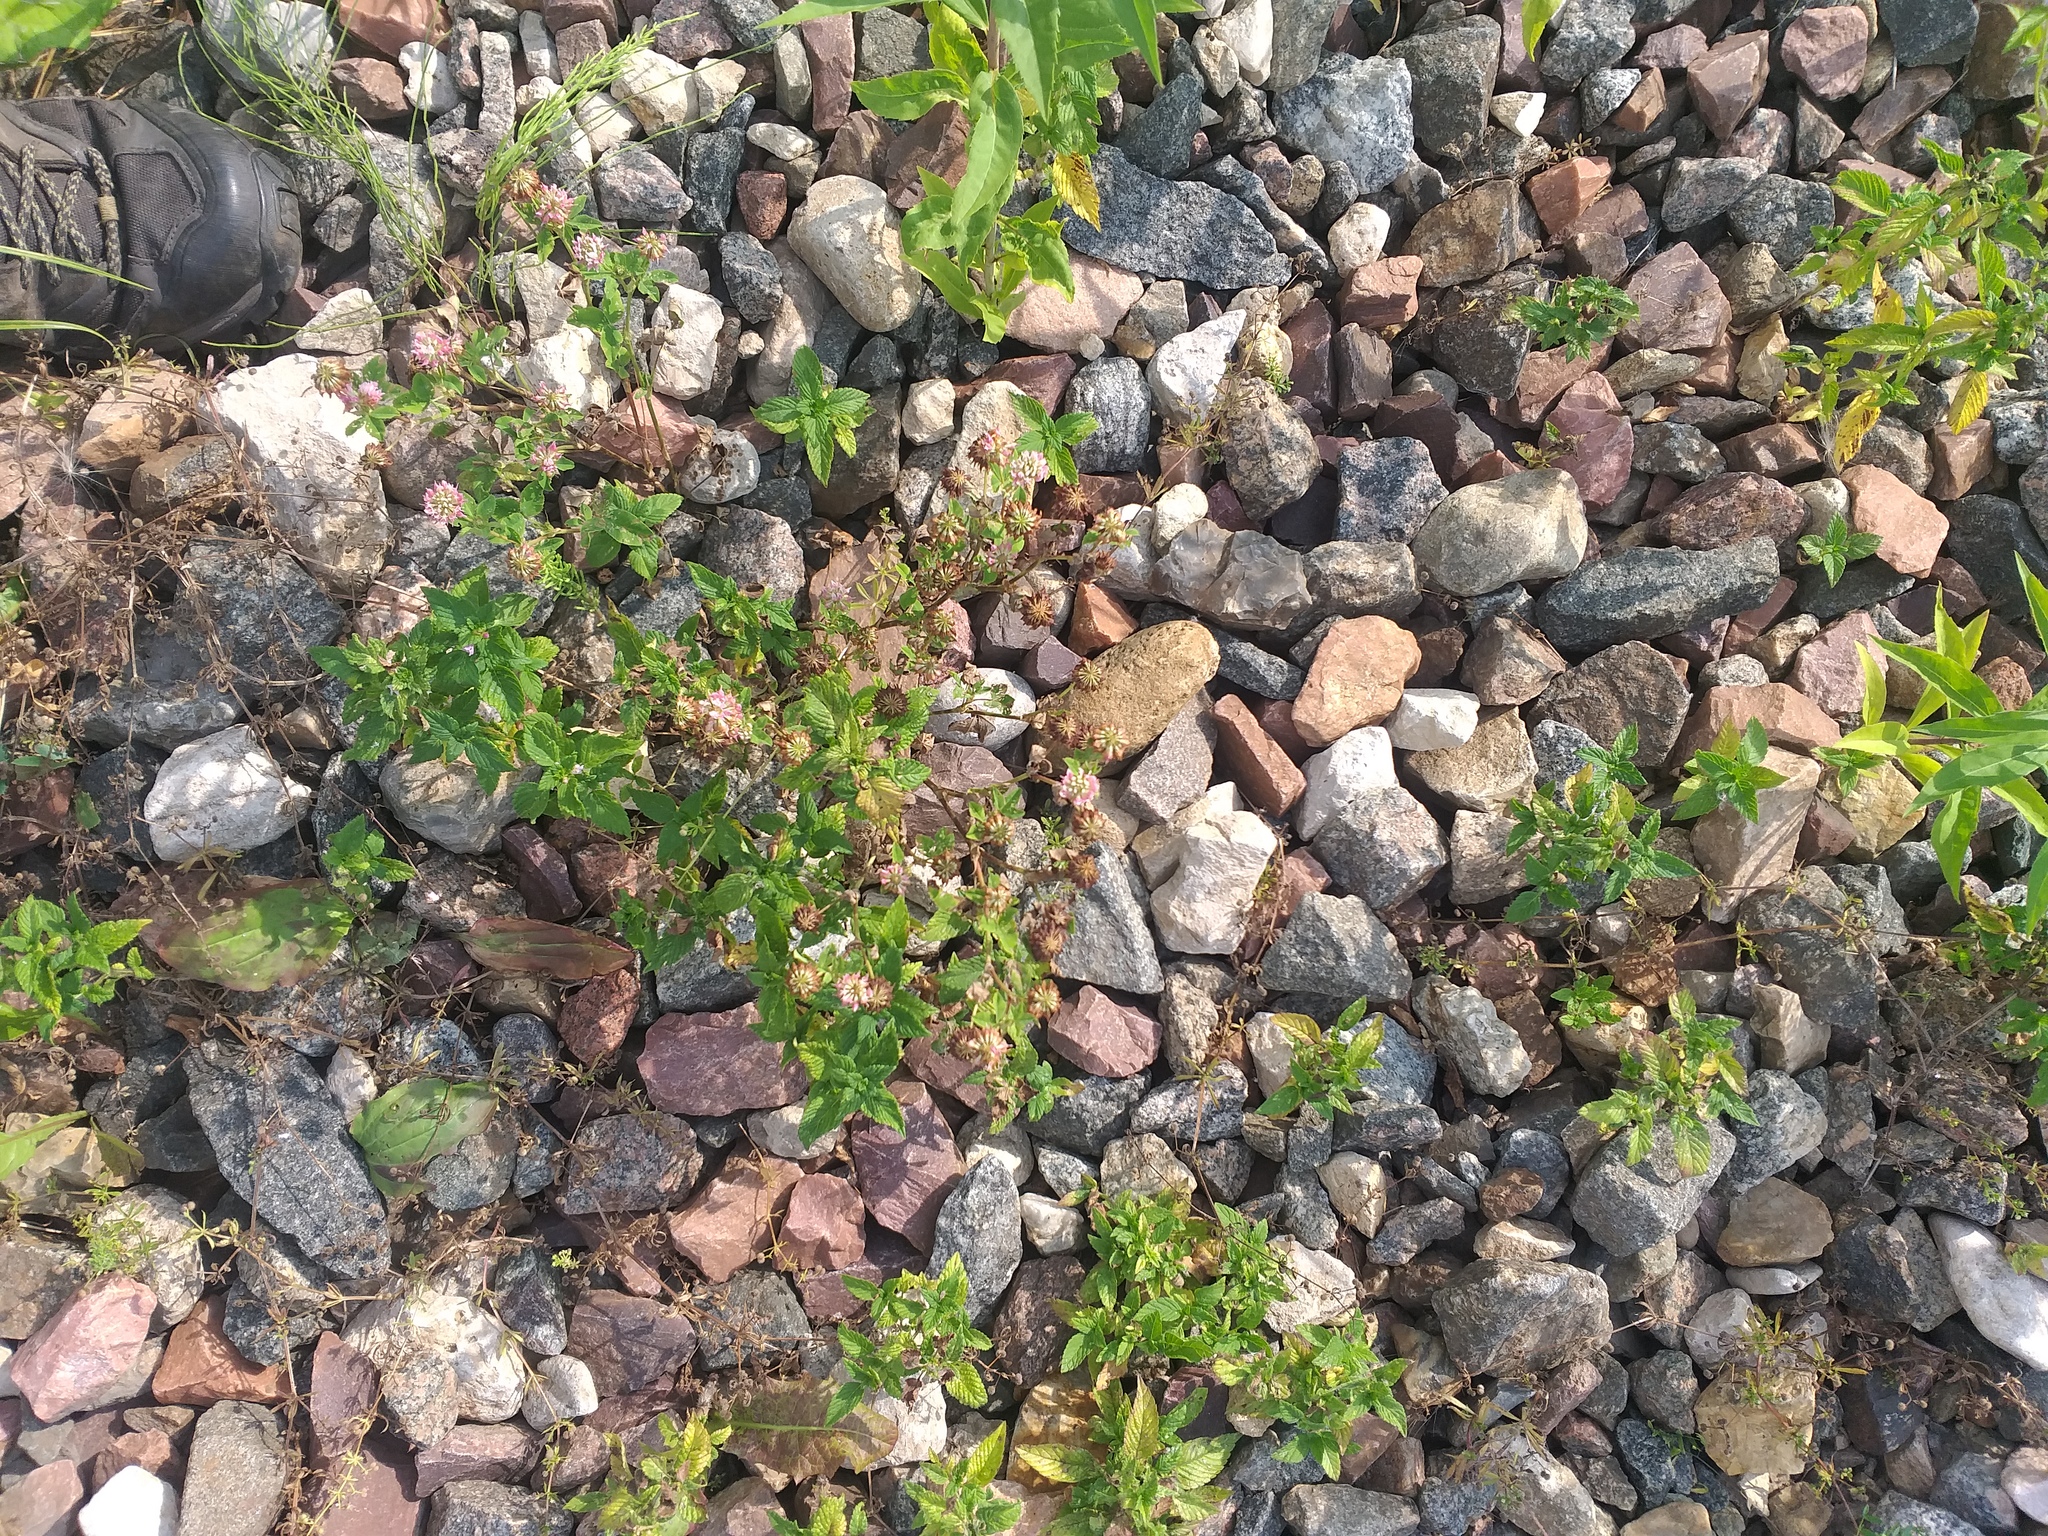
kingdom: Plantae
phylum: Tracheophyta
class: Magnoliopsida
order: Fabales
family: Fabaceae
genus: Trifolium
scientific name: Trifolium hybridum
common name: Alsike clover
